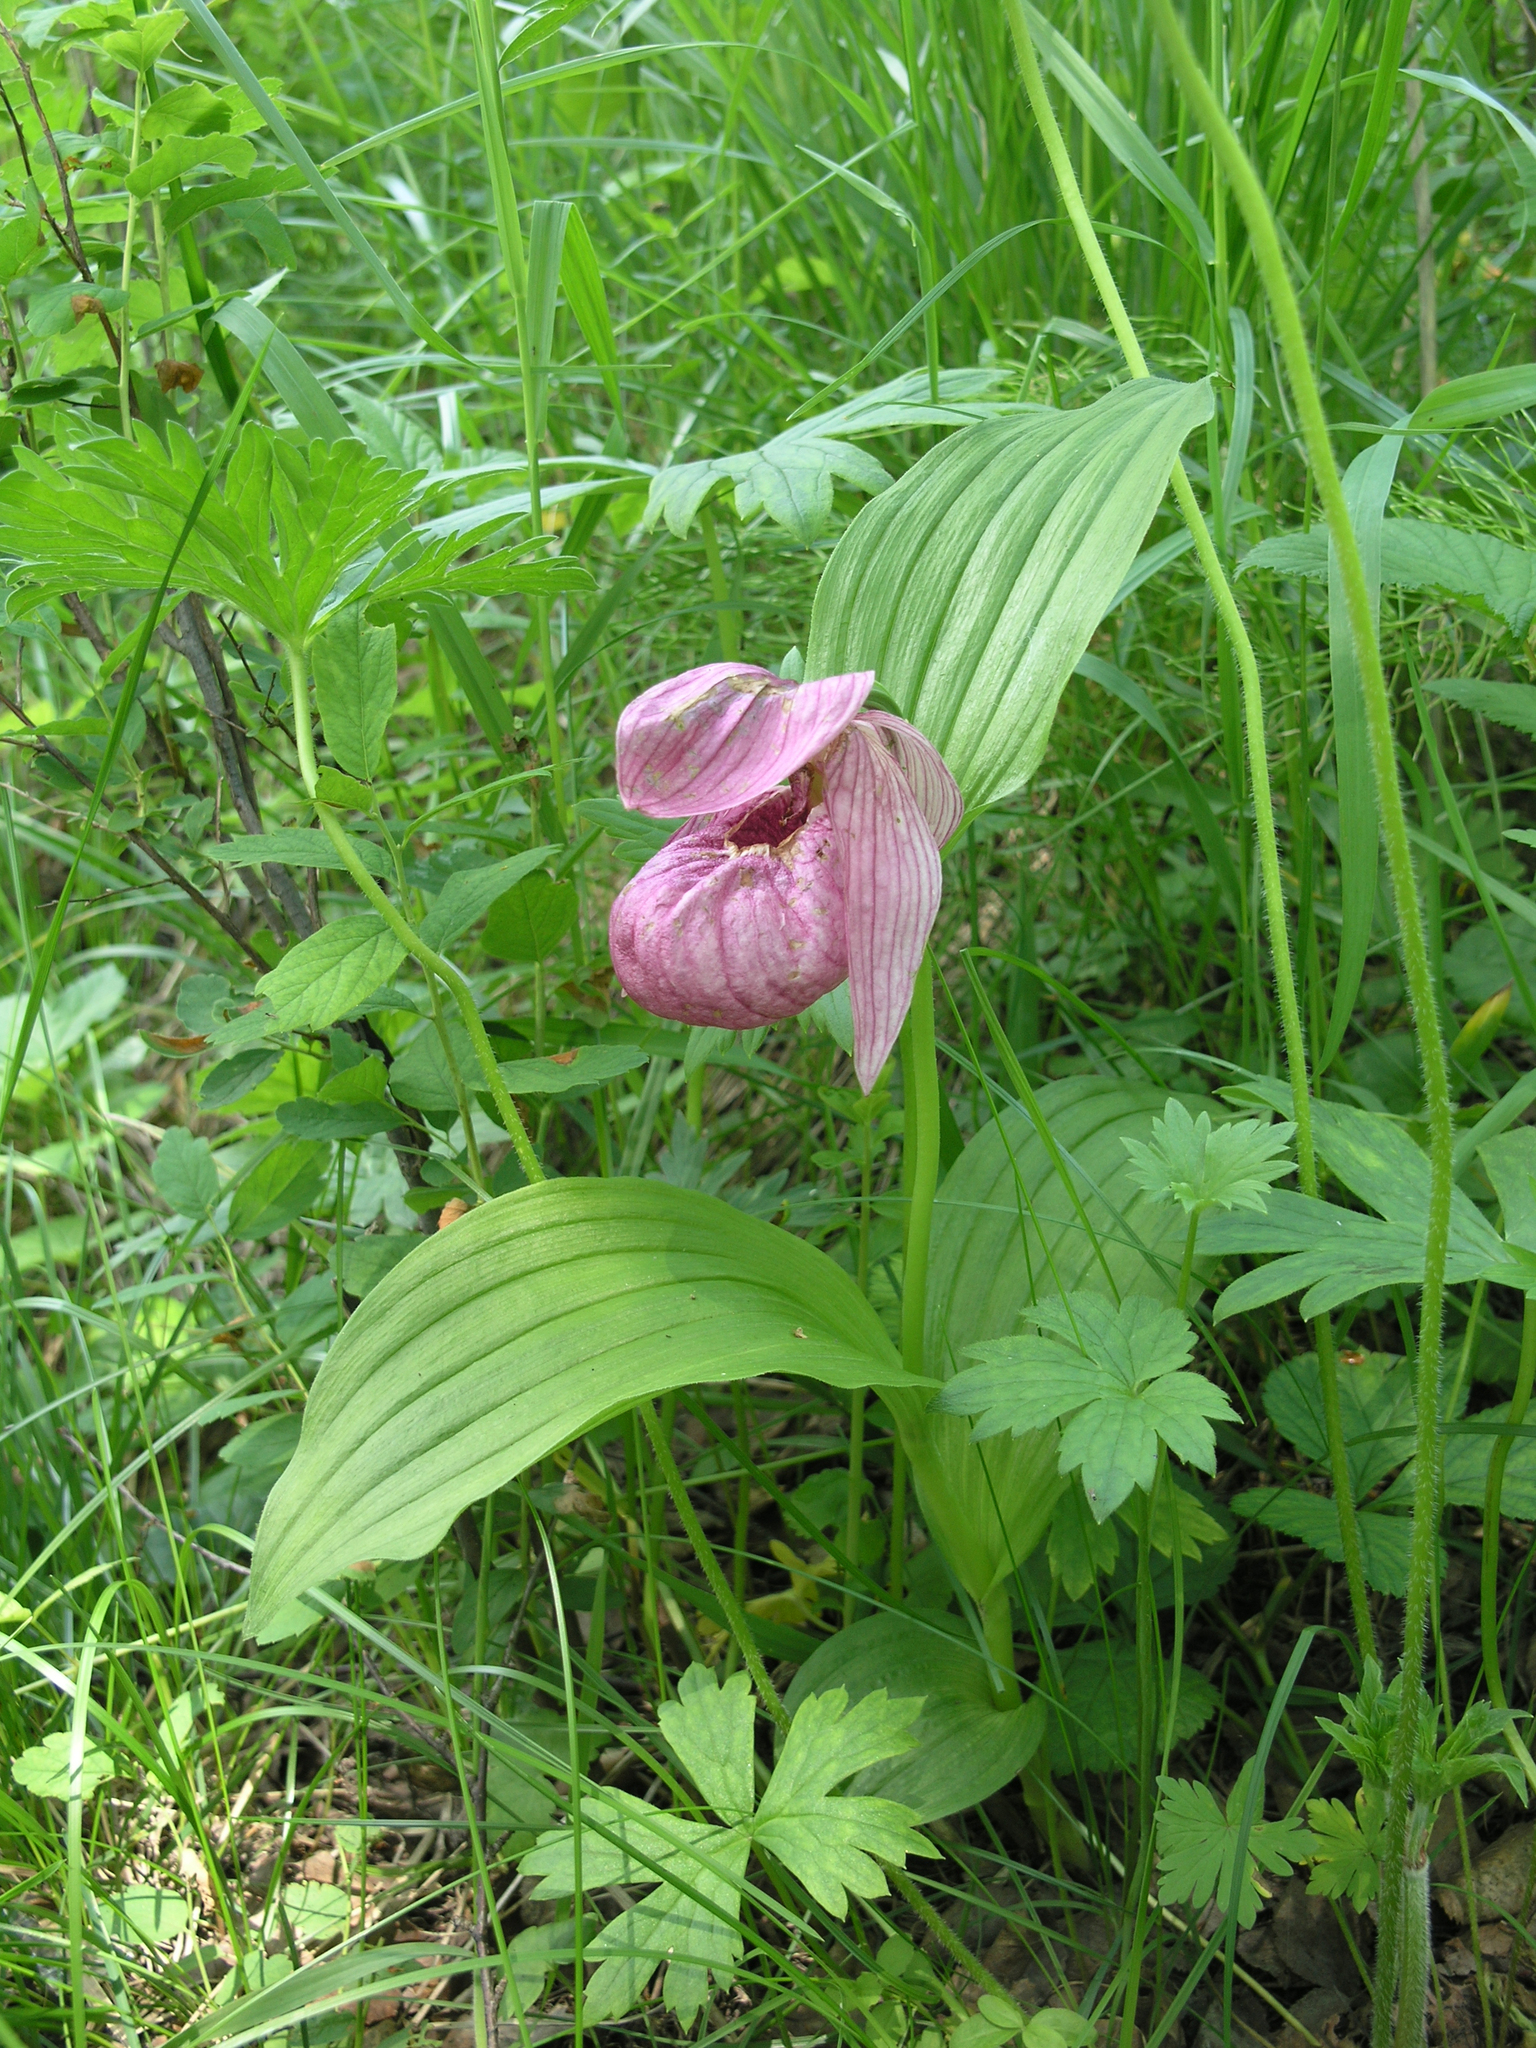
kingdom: Plantae
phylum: Tracheophyta
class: Liliopsida
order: Asparagales
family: Orchidaceae
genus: Cypripedium
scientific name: Cypripedium macranthos
